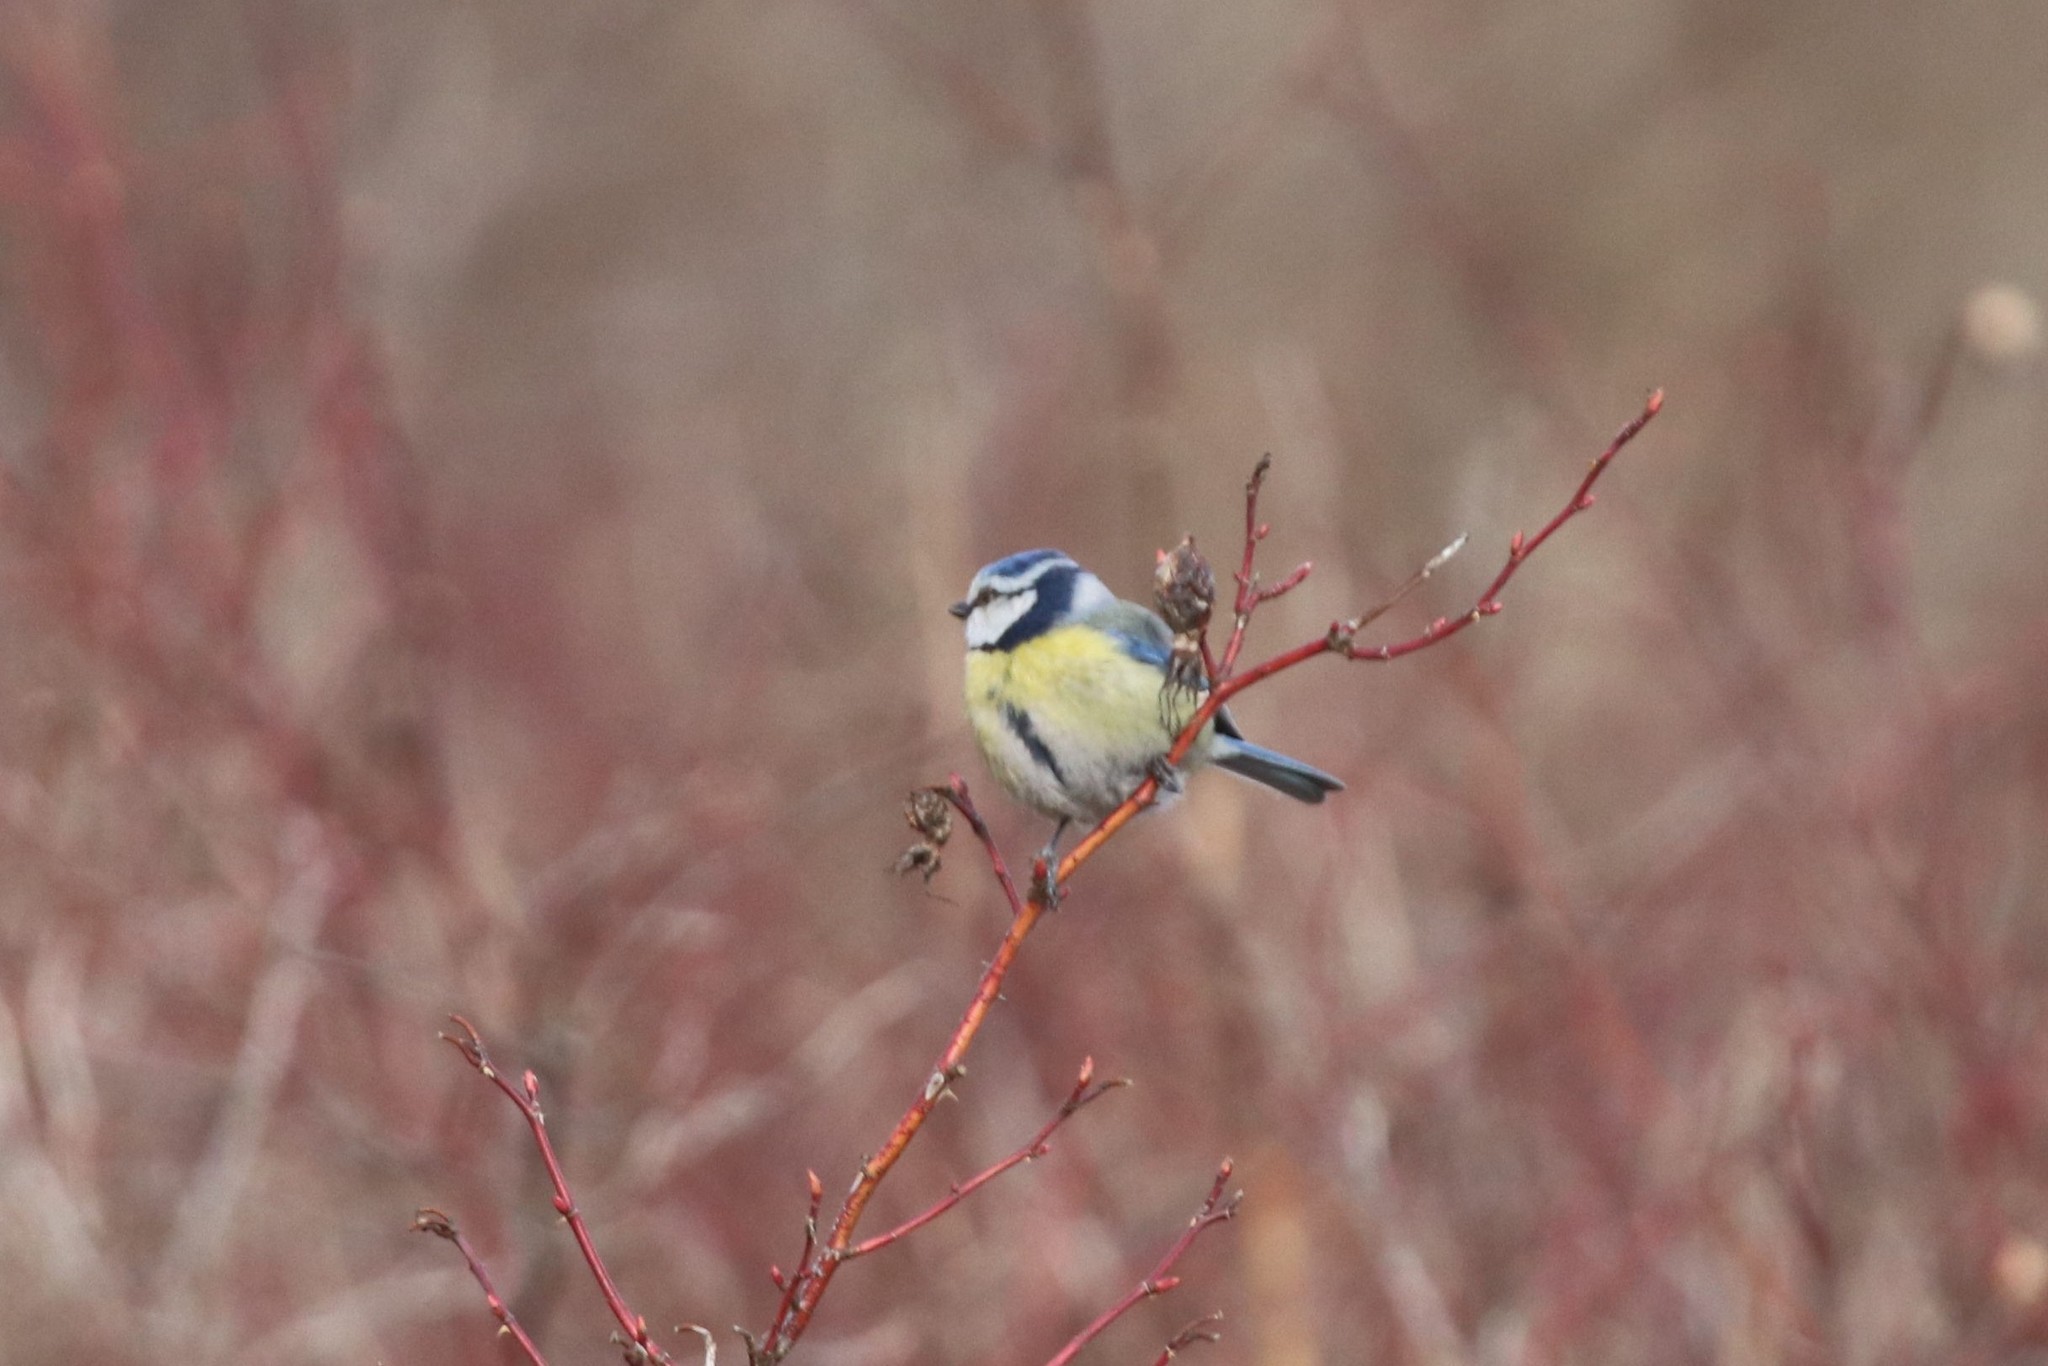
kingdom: Animalia
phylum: Chordata
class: Aves
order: Passeriformes
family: Paridae
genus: Cyanistes
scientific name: Cyanistes caeruleus
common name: Eurasian blue tit
